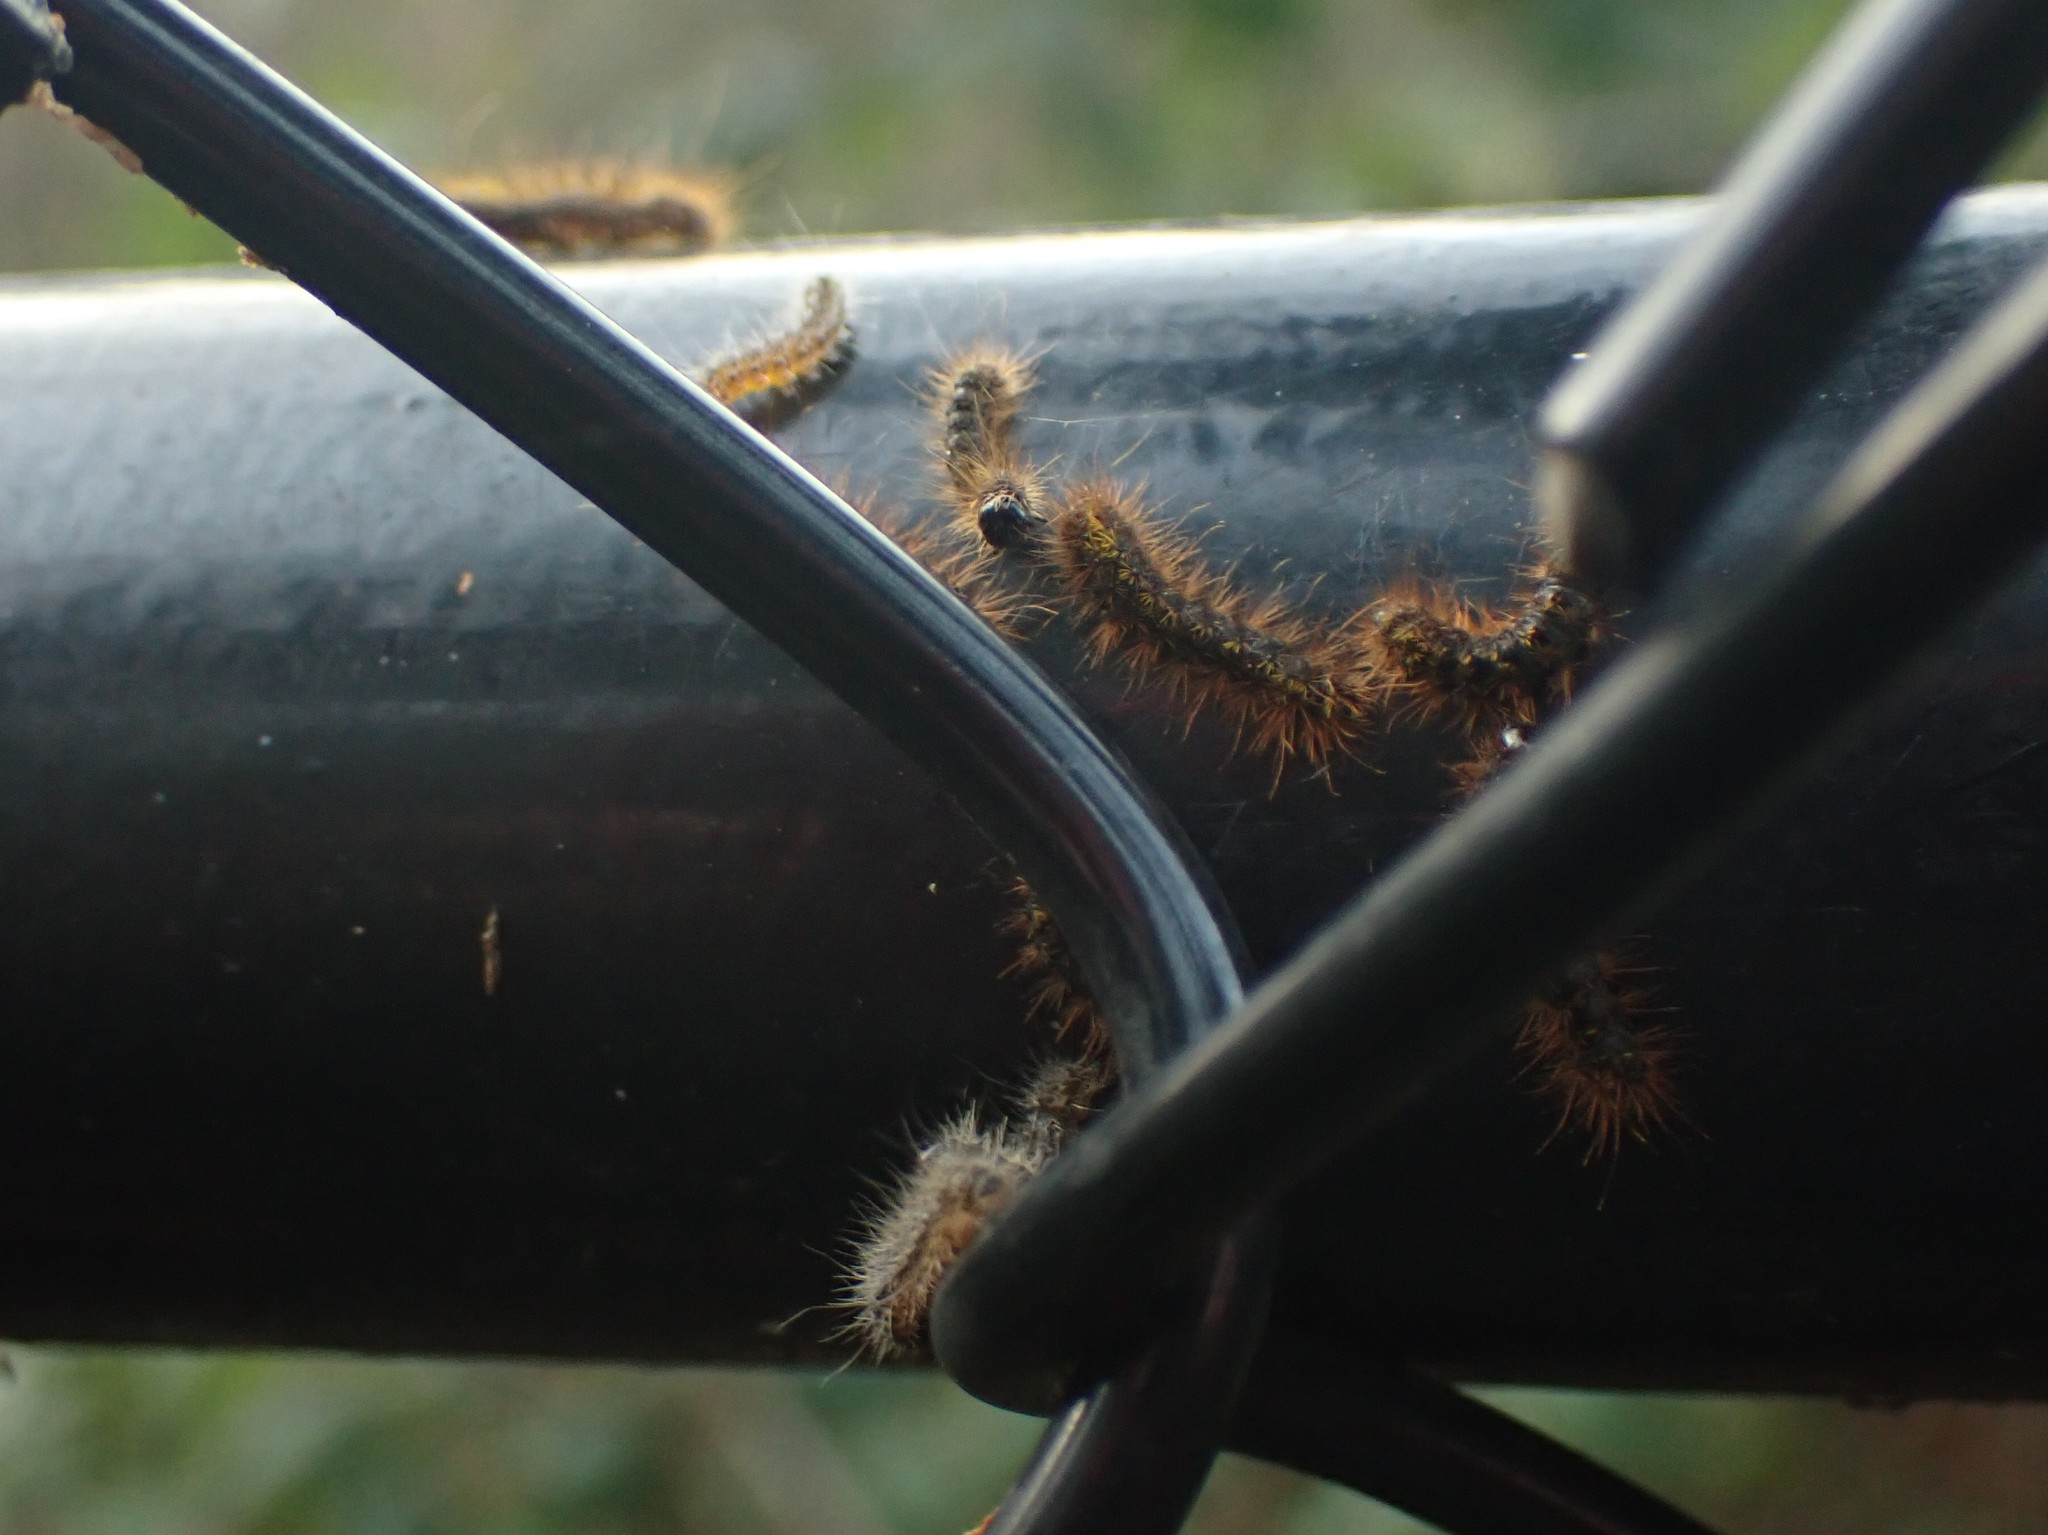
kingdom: Animalia
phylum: Arthropoda
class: Insecta
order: Lepidoptera
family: Erebidae
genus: Lophocampa
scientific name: Lophocampa argentata
